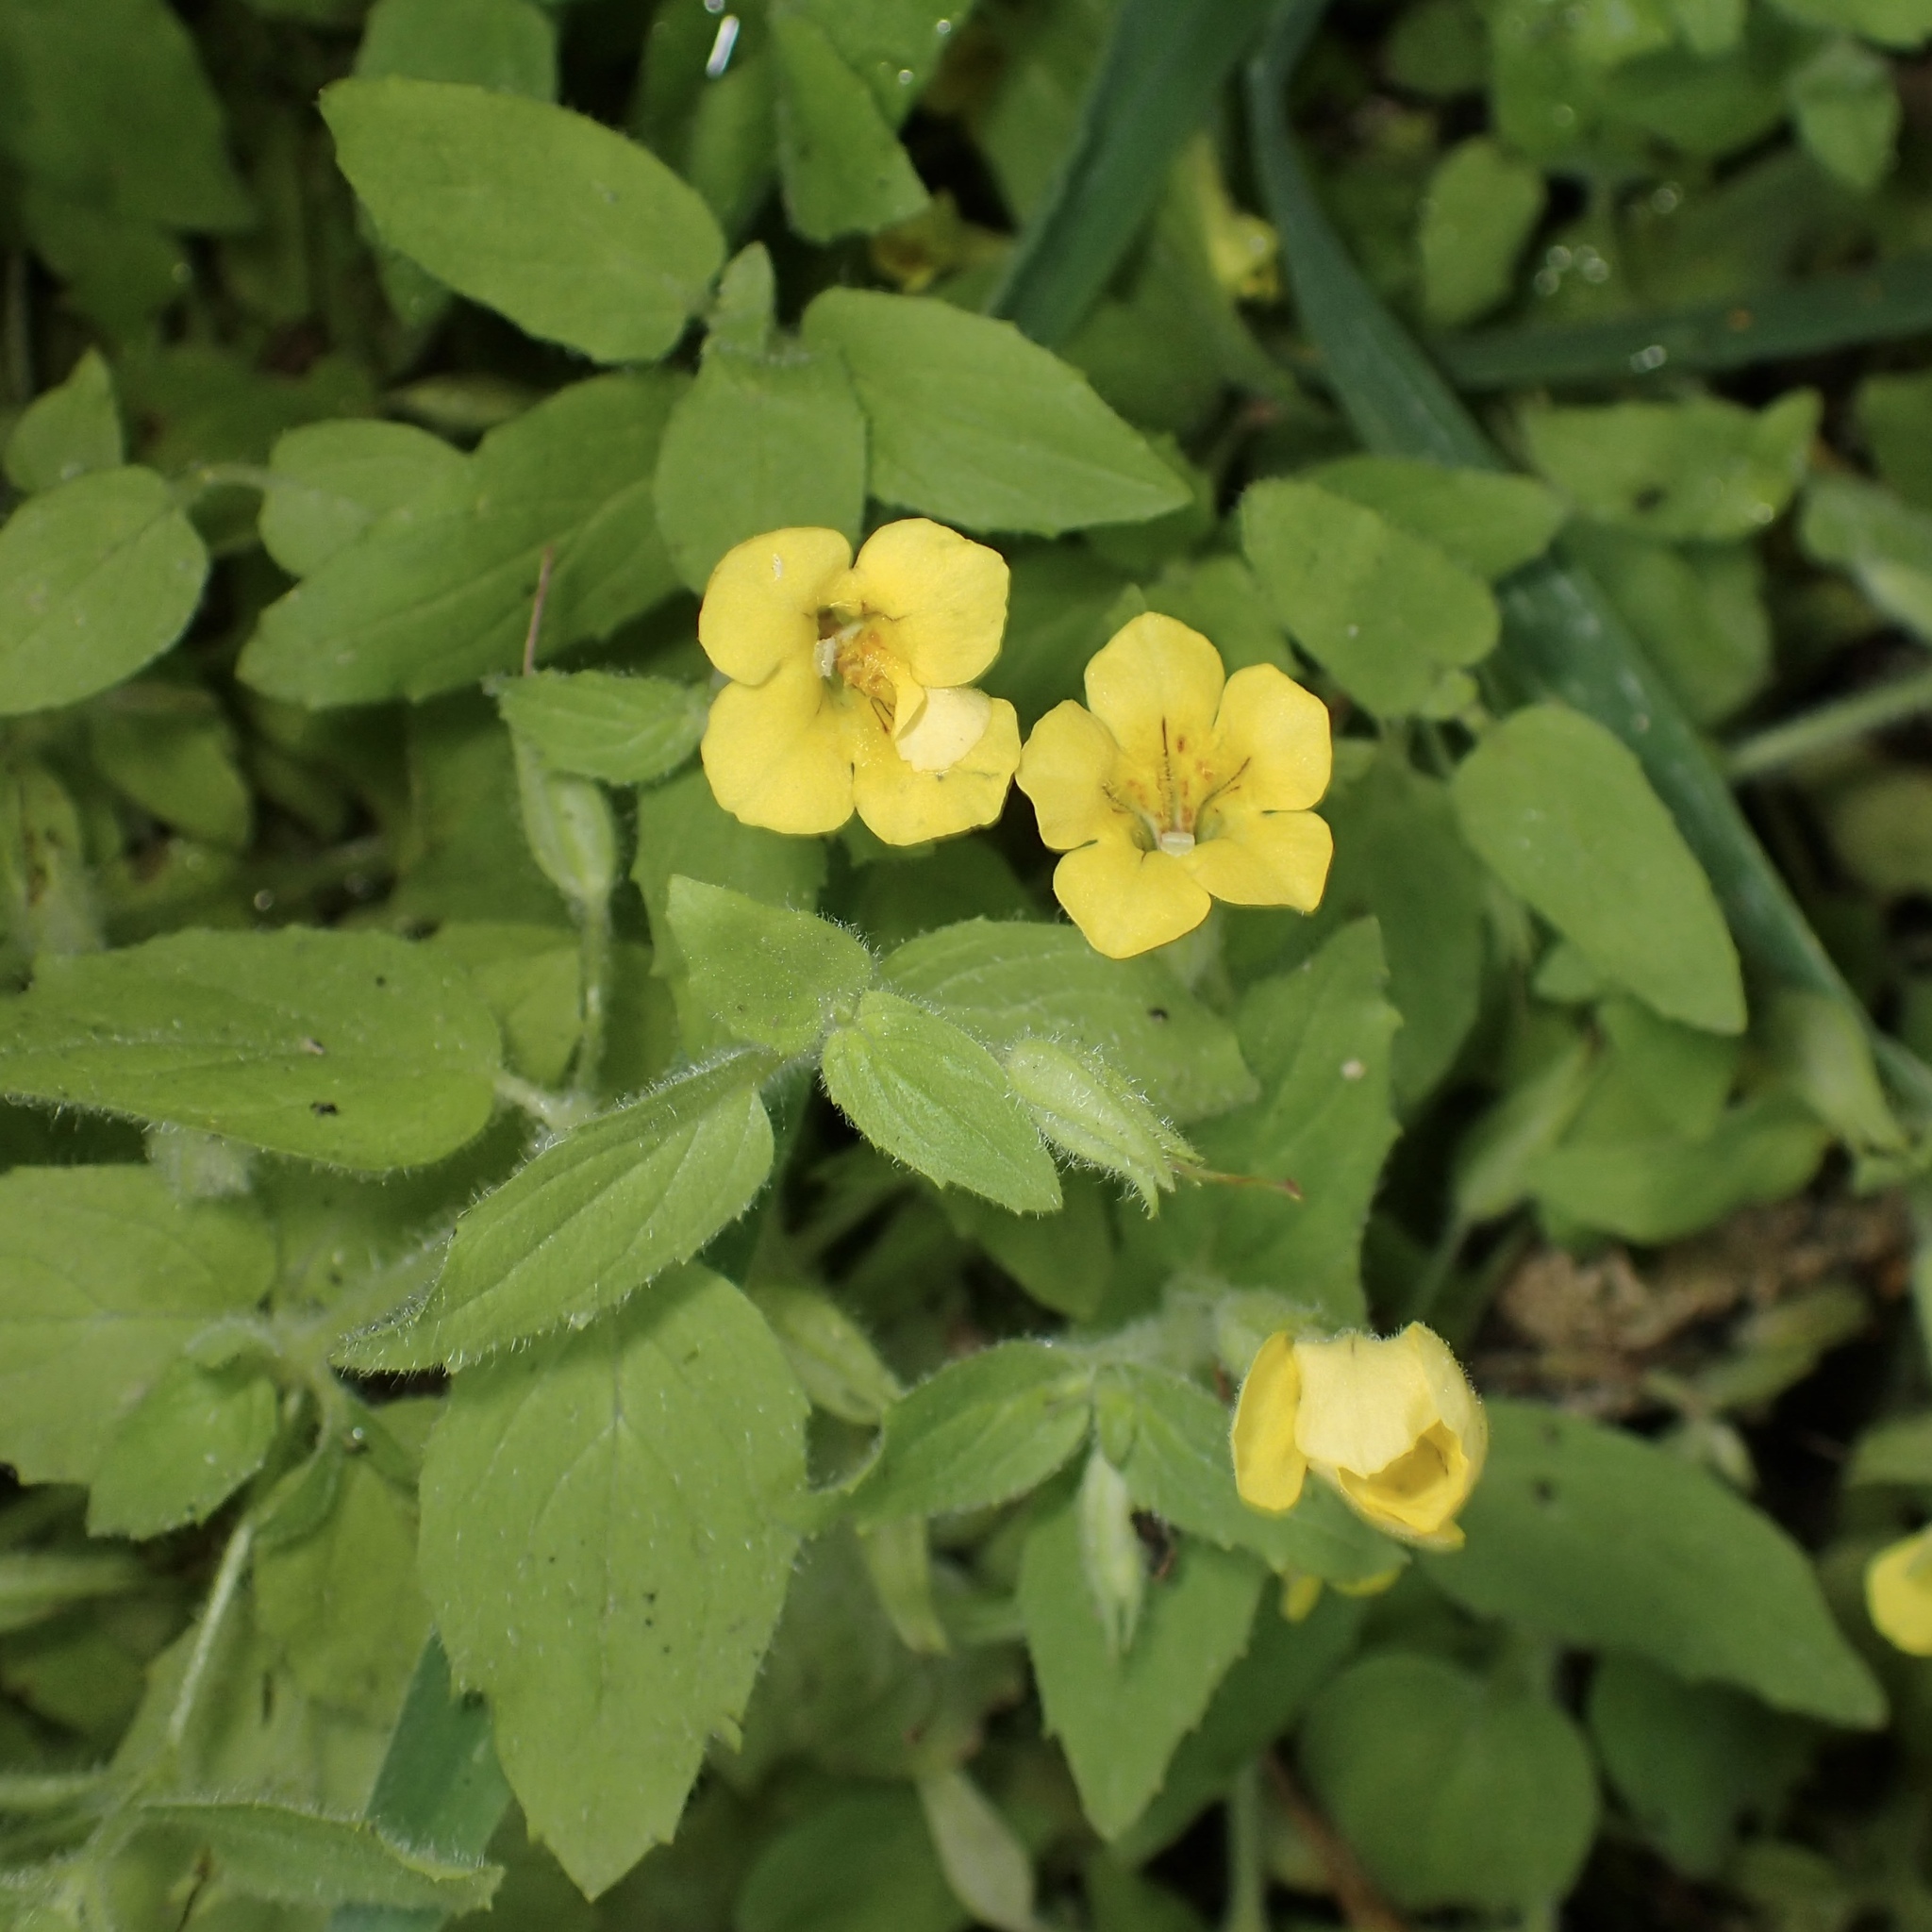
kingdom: Plantae
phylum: Tracheophyta
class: Magnoliopsida
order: Lamiales
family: Phrymaceae
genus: Erythranthe
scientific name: Erythranthe moschata
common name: Muskflower
